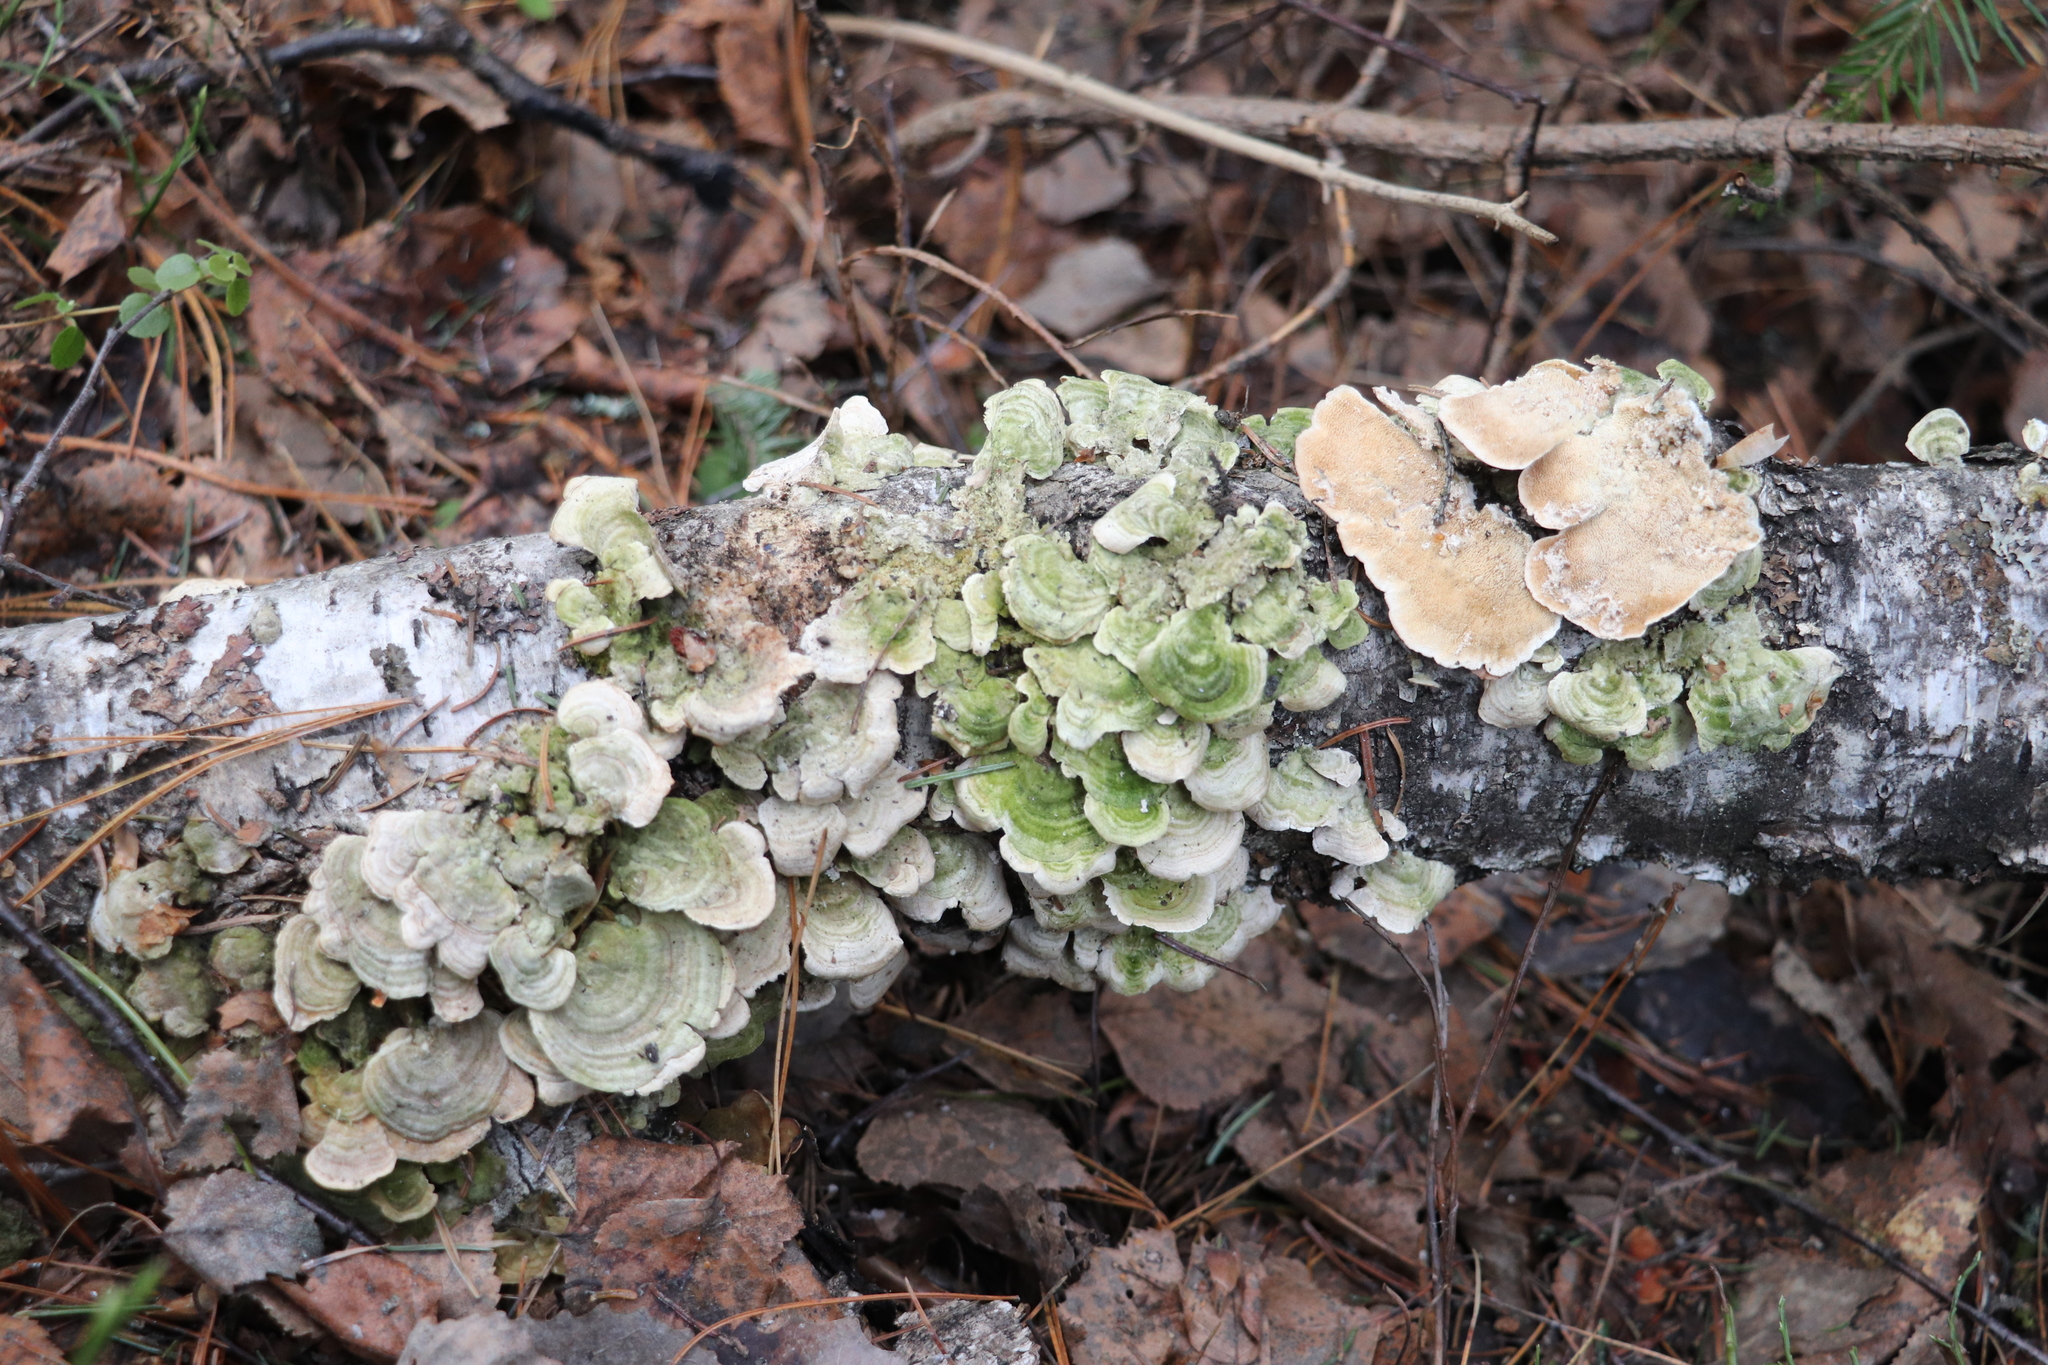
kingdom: Fungi
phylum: Basidiomycota
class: Agaricomycetes
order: Hymenochaetales
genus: Trichaptum
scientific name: Trichaptum biforme
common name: Violet-toothed polypore
